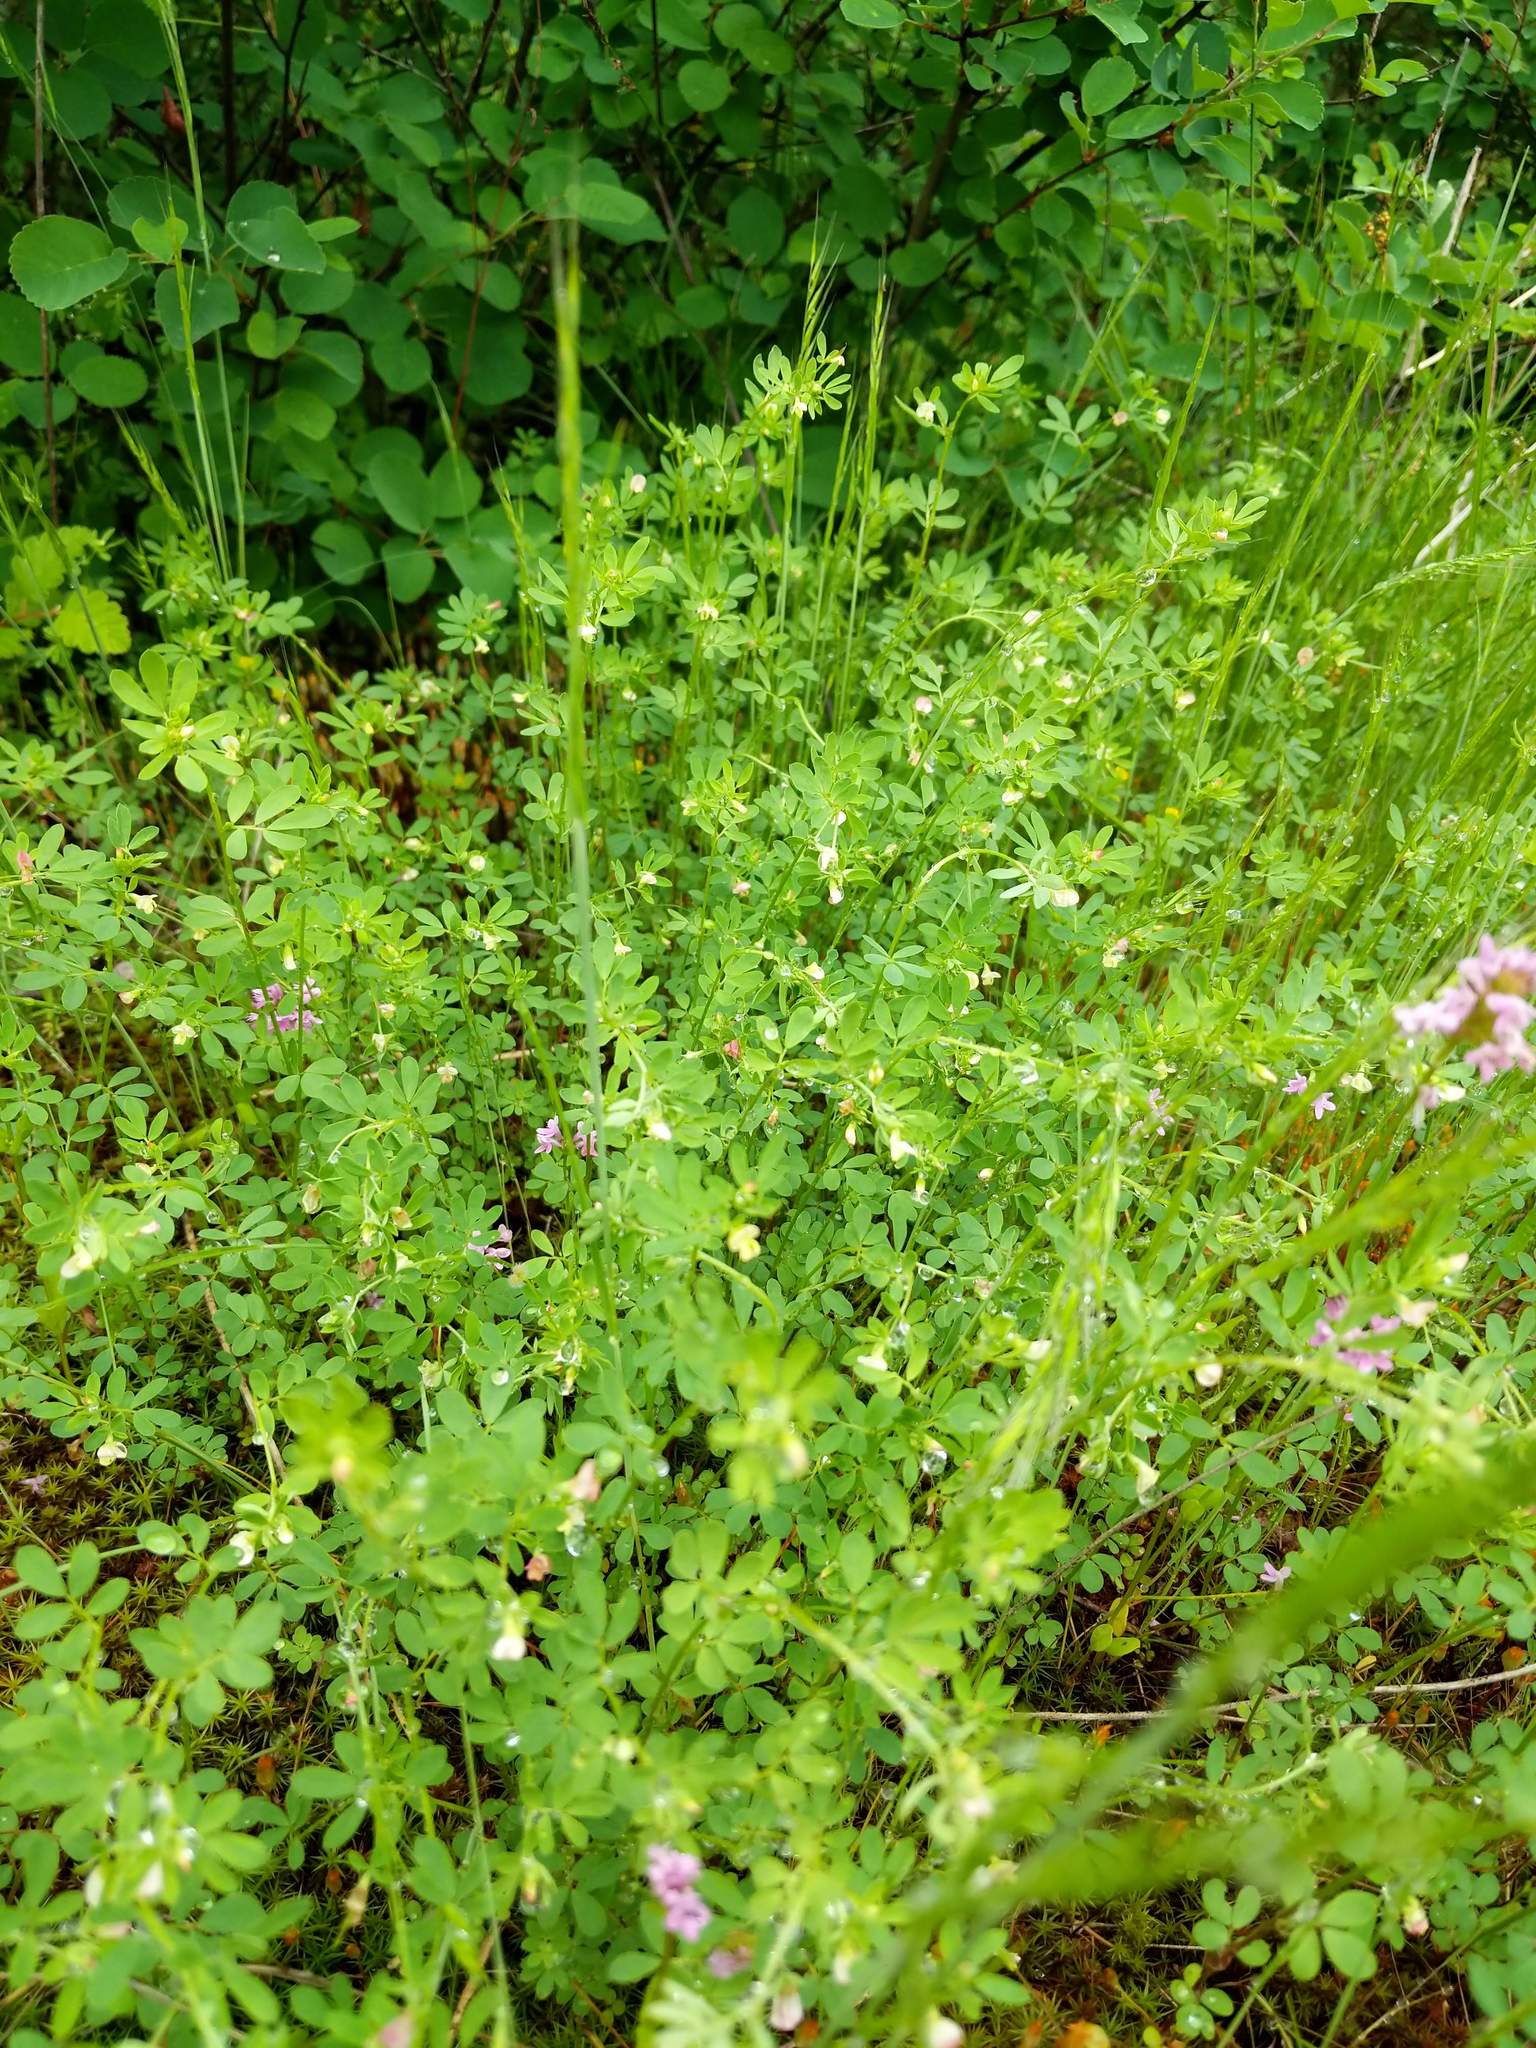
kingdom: Plantae
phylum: Tracheophyta
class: Magnoliopsida
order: Fabales
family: Fabaceae
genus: Acmispon
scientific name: Acmispon parviflorus
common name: Desert deer-vetch
